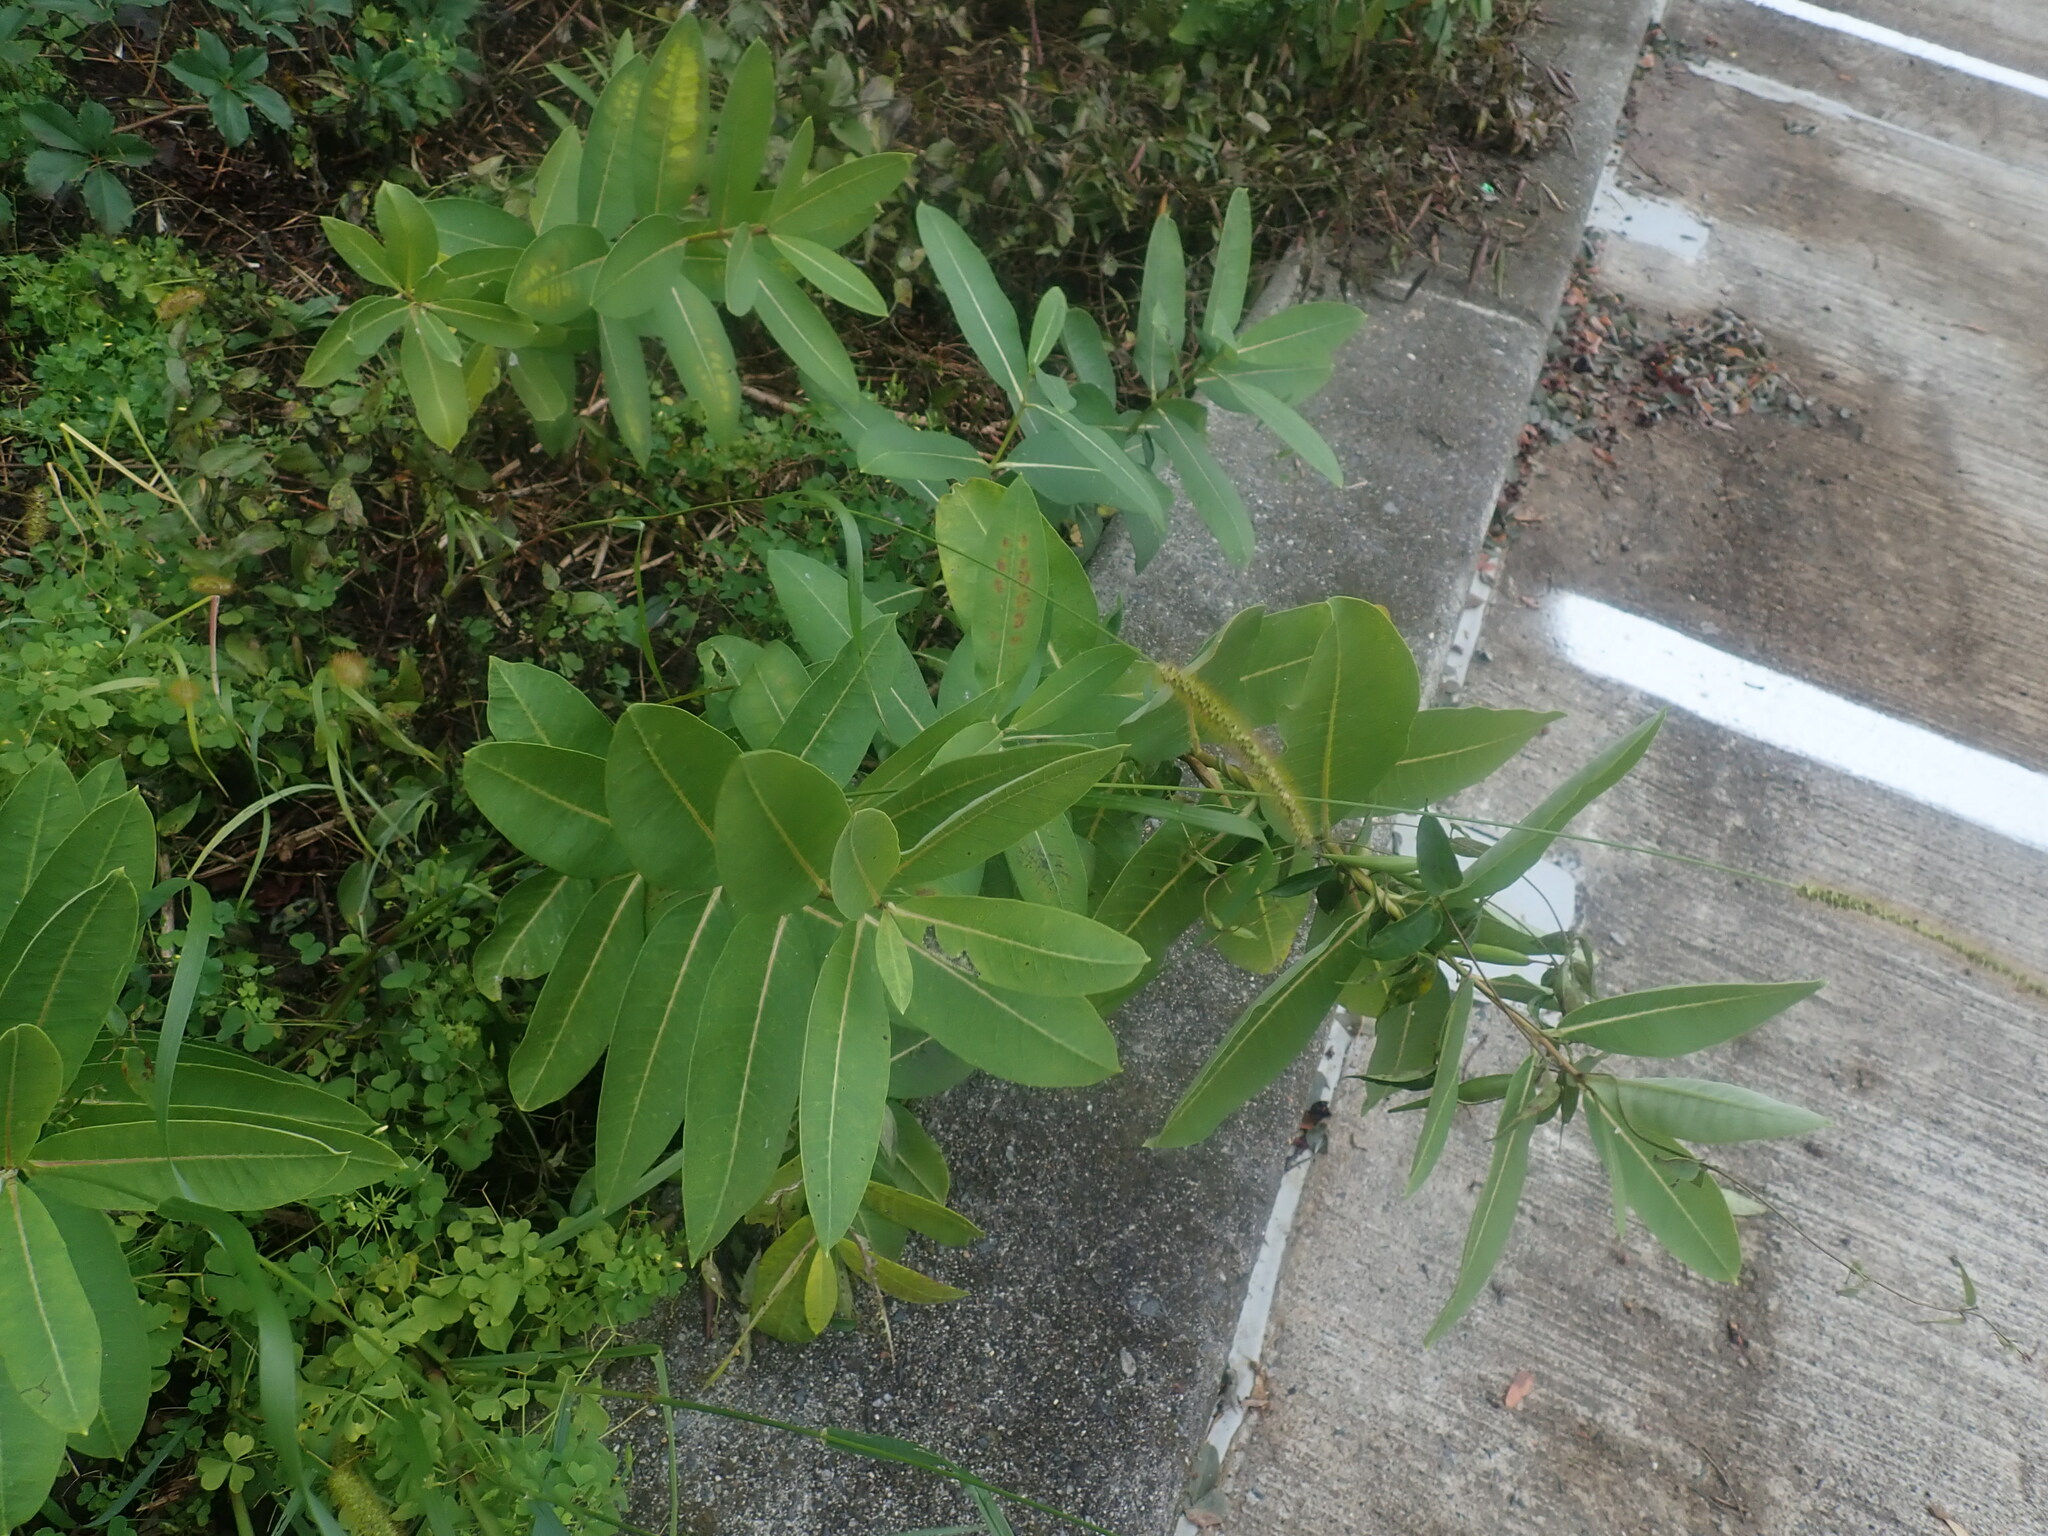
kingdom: Plantae
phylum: Tracheophyta
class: Magnoliopsida
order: Gentianales
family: Apocynaceae
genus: Asclepias
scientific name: Asclepias syriaca
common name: Common milkweed
